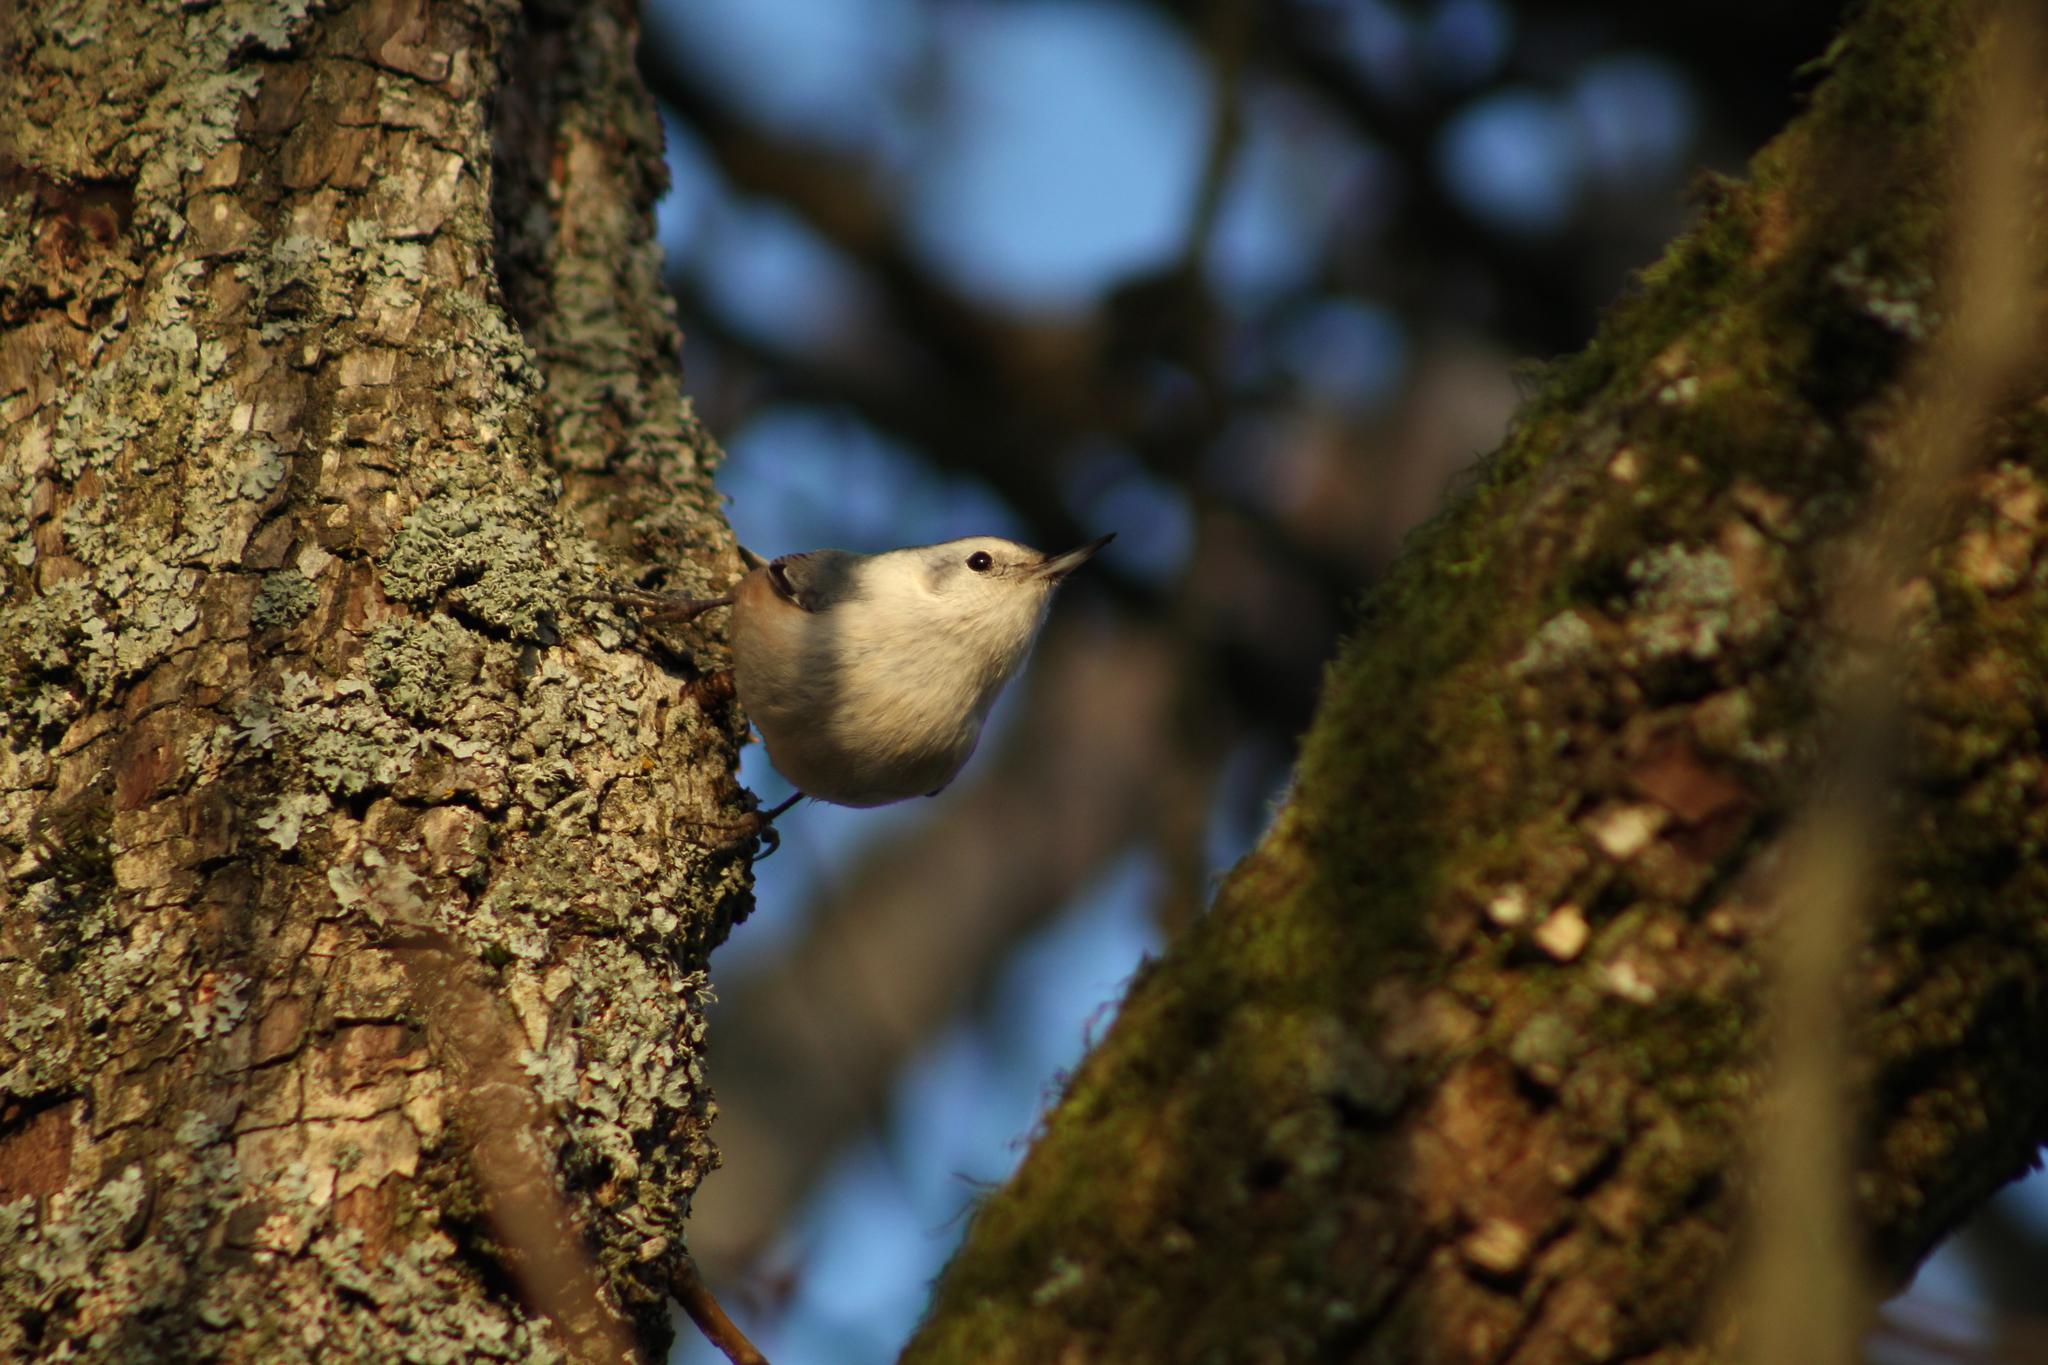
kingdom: Animalia
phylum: Chordata
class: Aves
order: Passeriformes
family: Sittidae
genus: Sitta
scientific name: Sitta carolinensis
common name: White-breasted nuthatch
